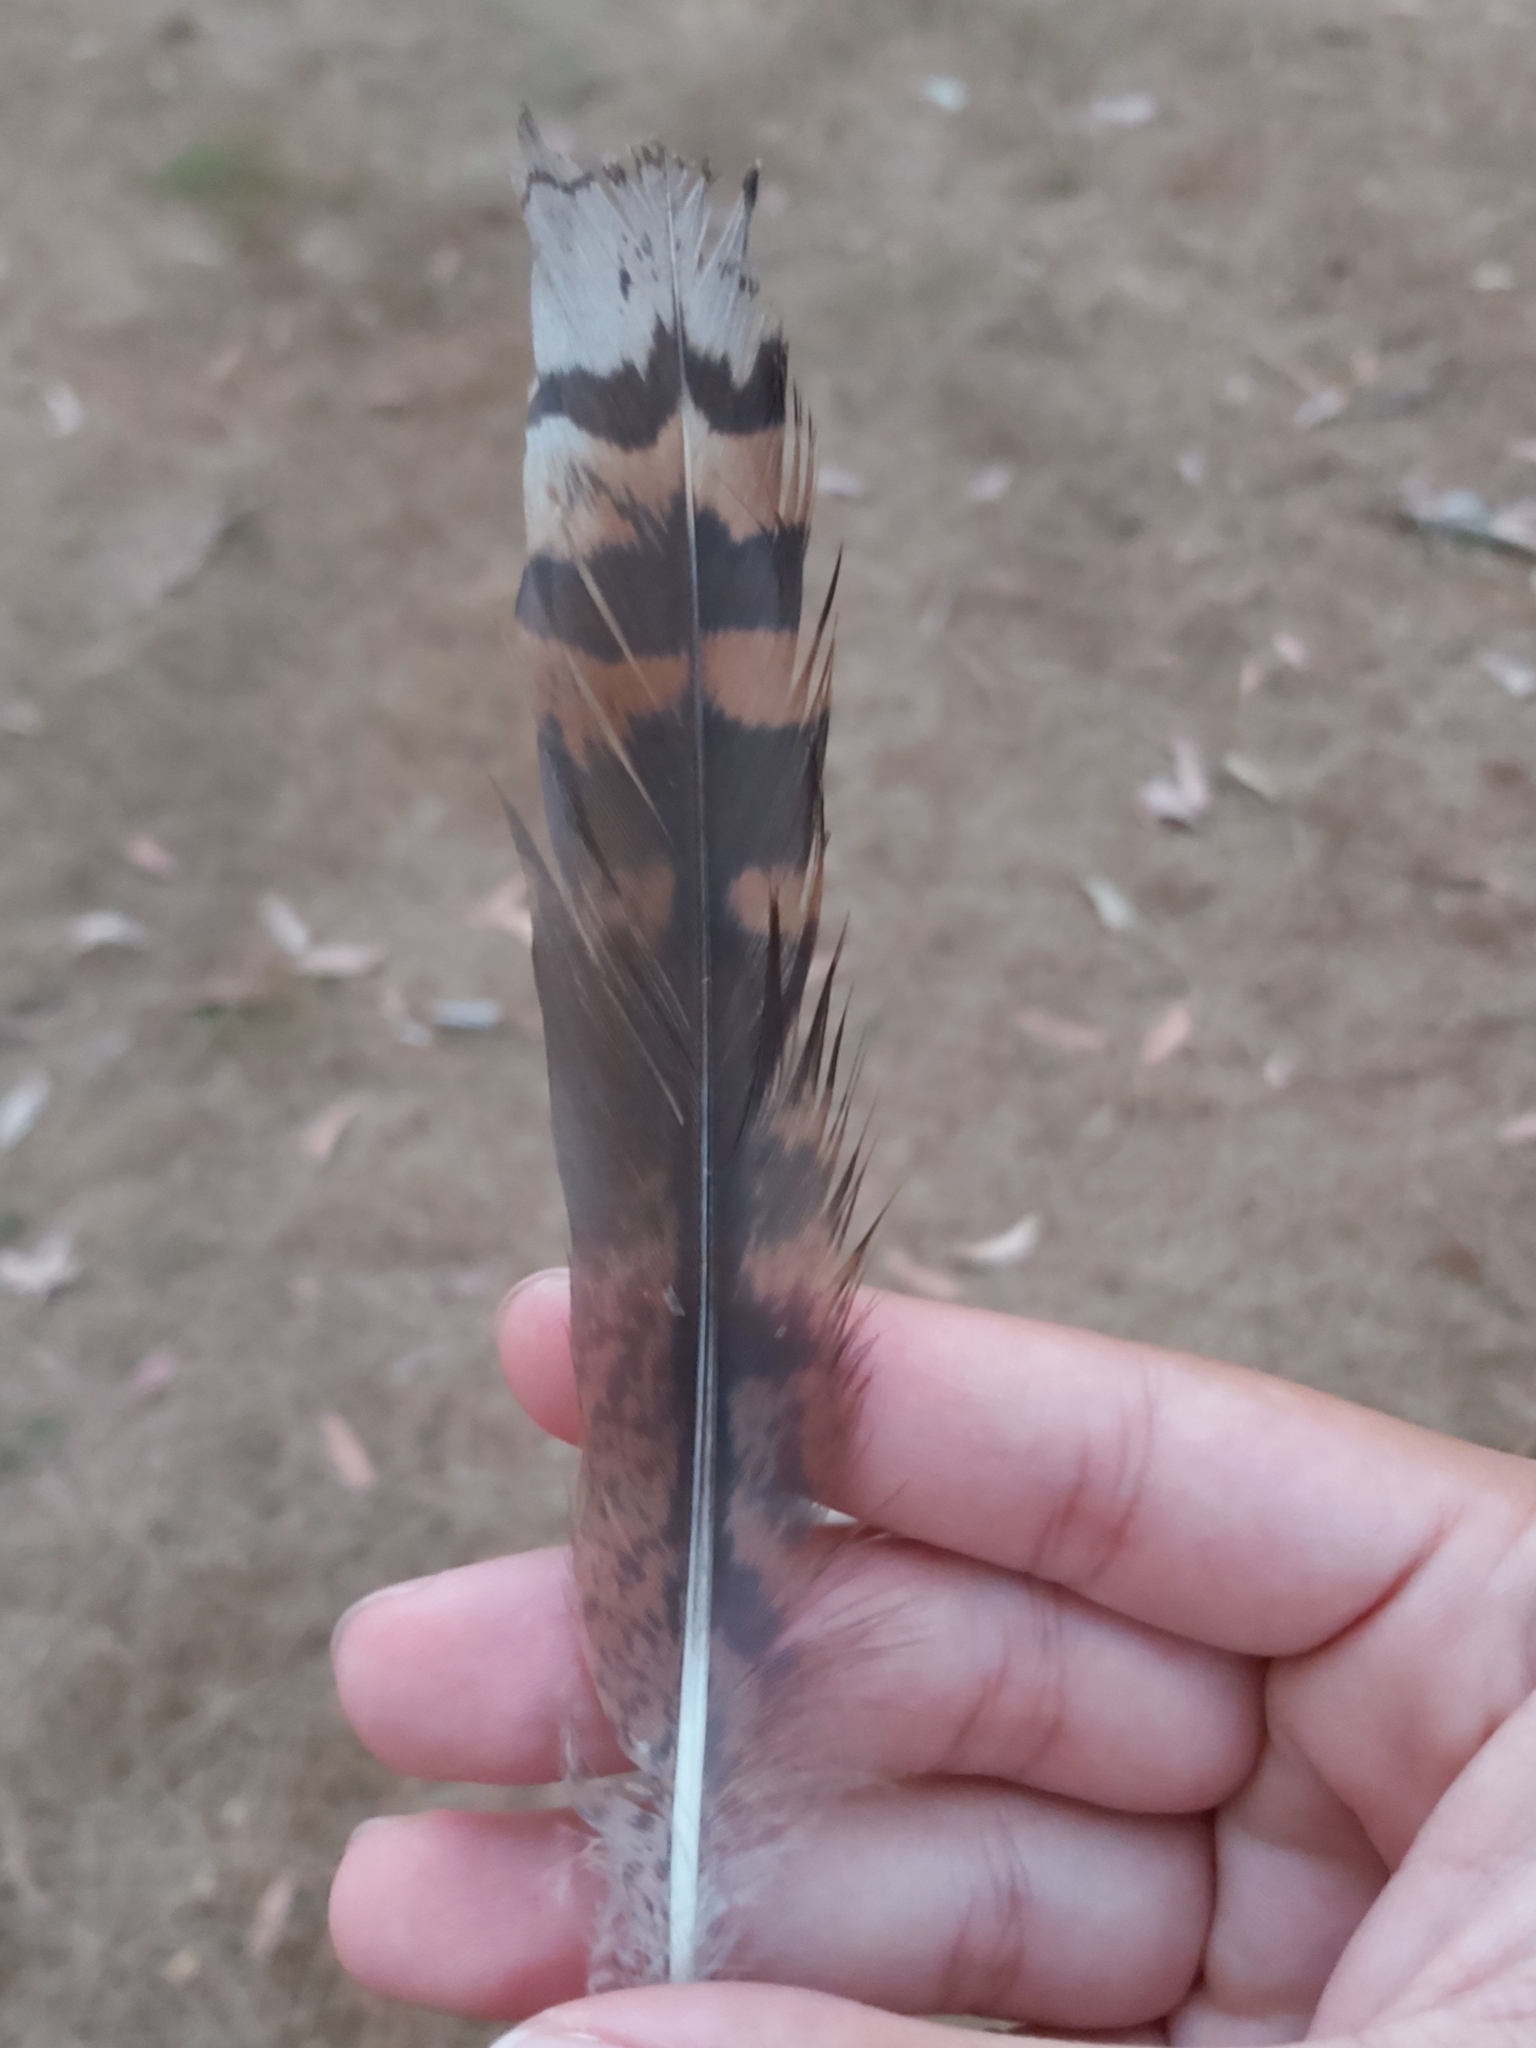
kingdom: Animalia
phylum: Chordata
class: Aves
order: Coraciiformes
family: Alcedinidae
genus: Dacelo
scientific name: Dacelo novaeguineae
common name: Laughing kookaburra
